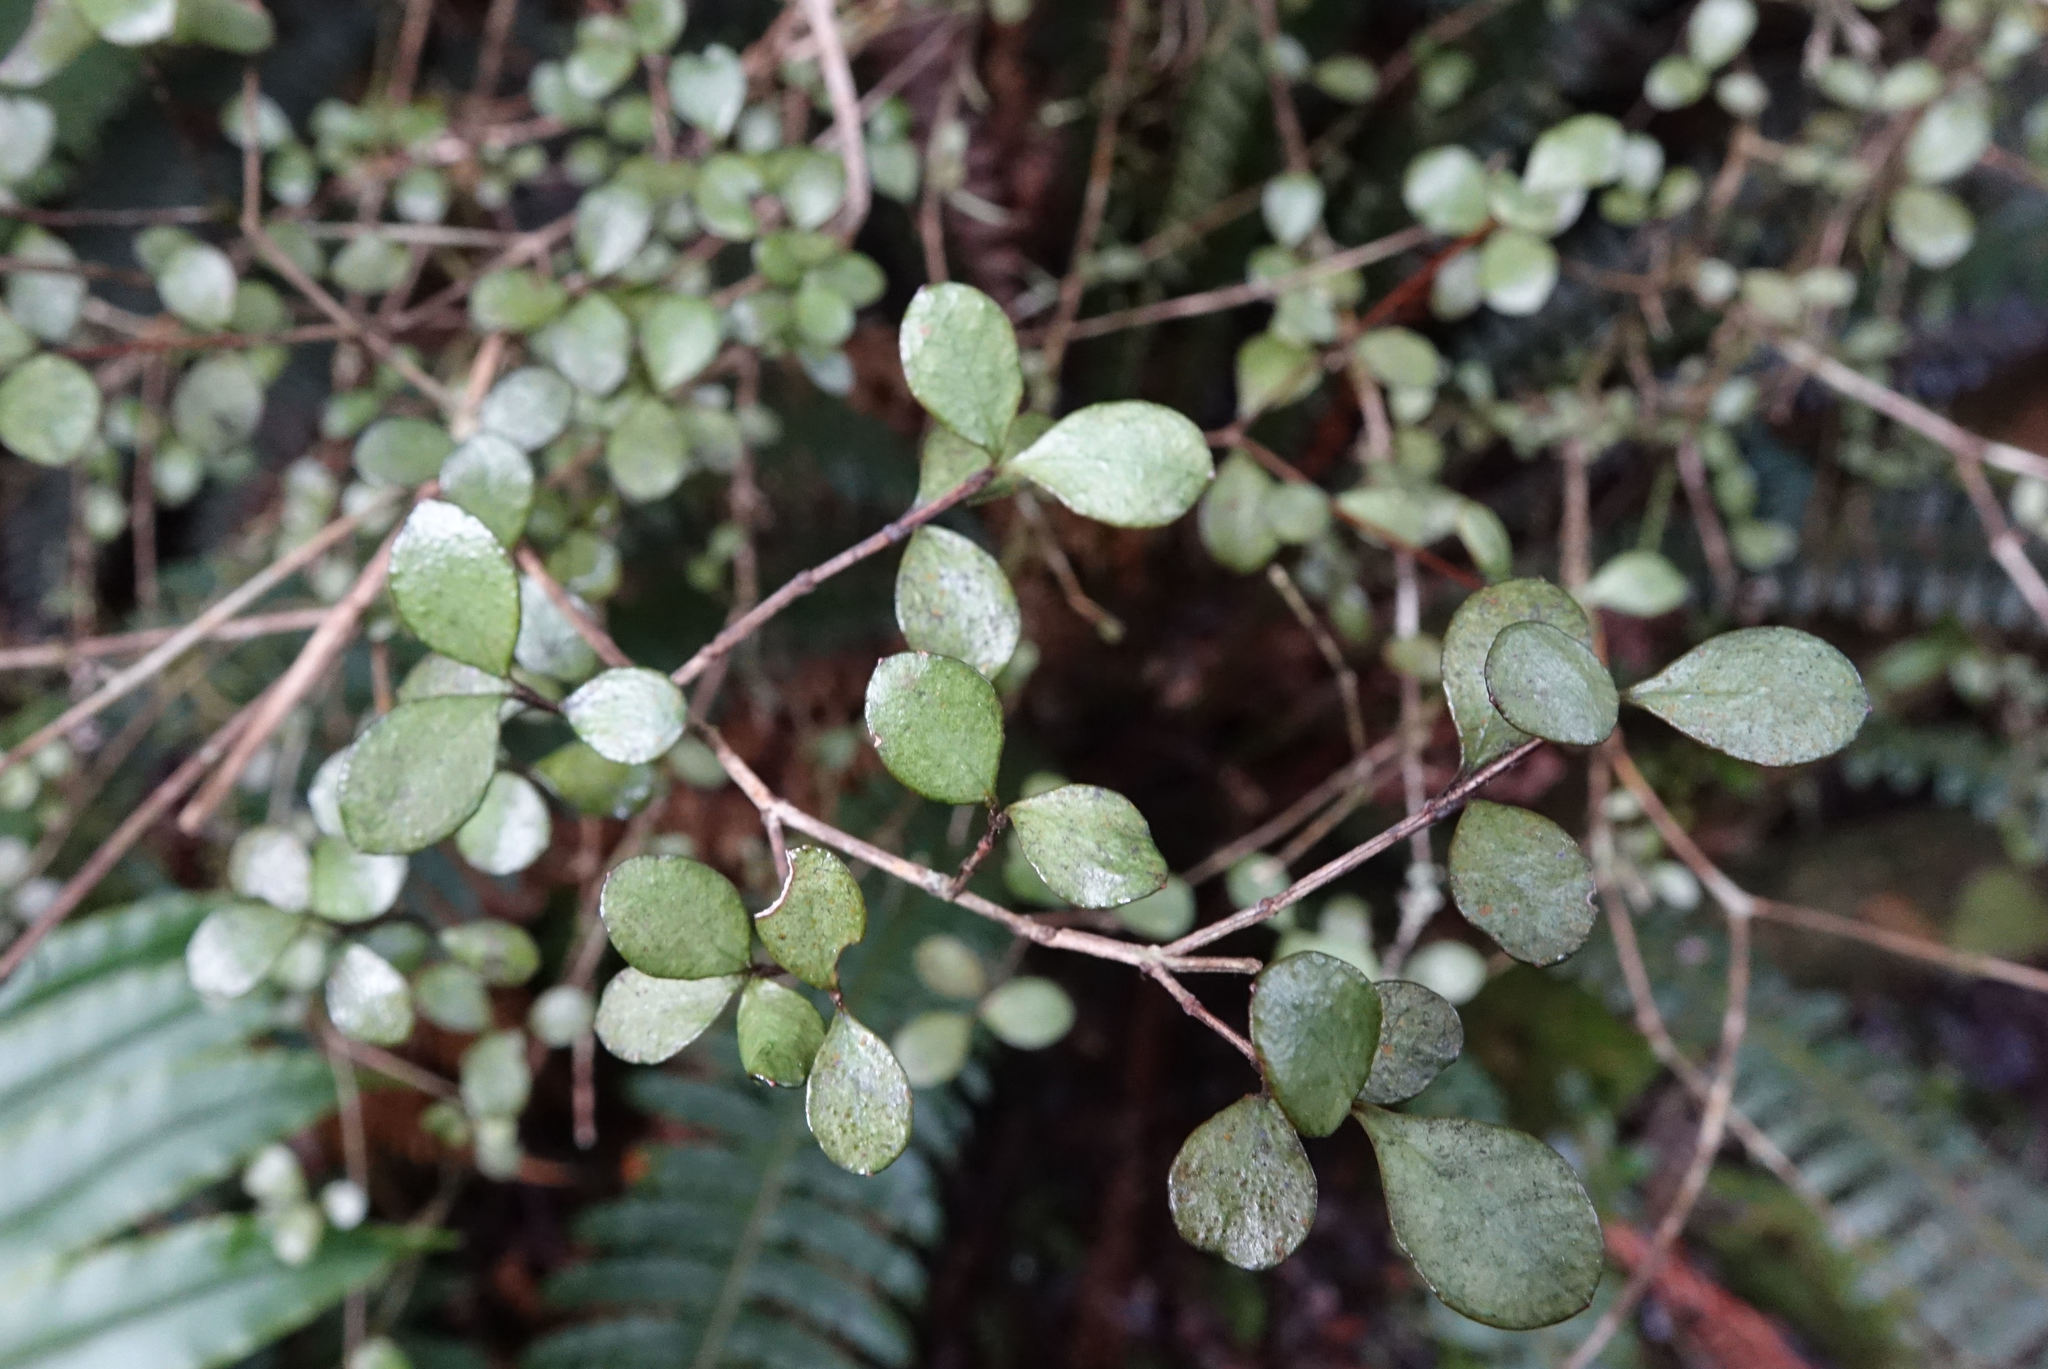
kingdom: Plantae
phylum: Tracheophyta
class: Magnoliopsida
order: Myrtales
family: Myrtaceae
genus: Neomyrtus
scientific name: Neomyrtus pedunculata
